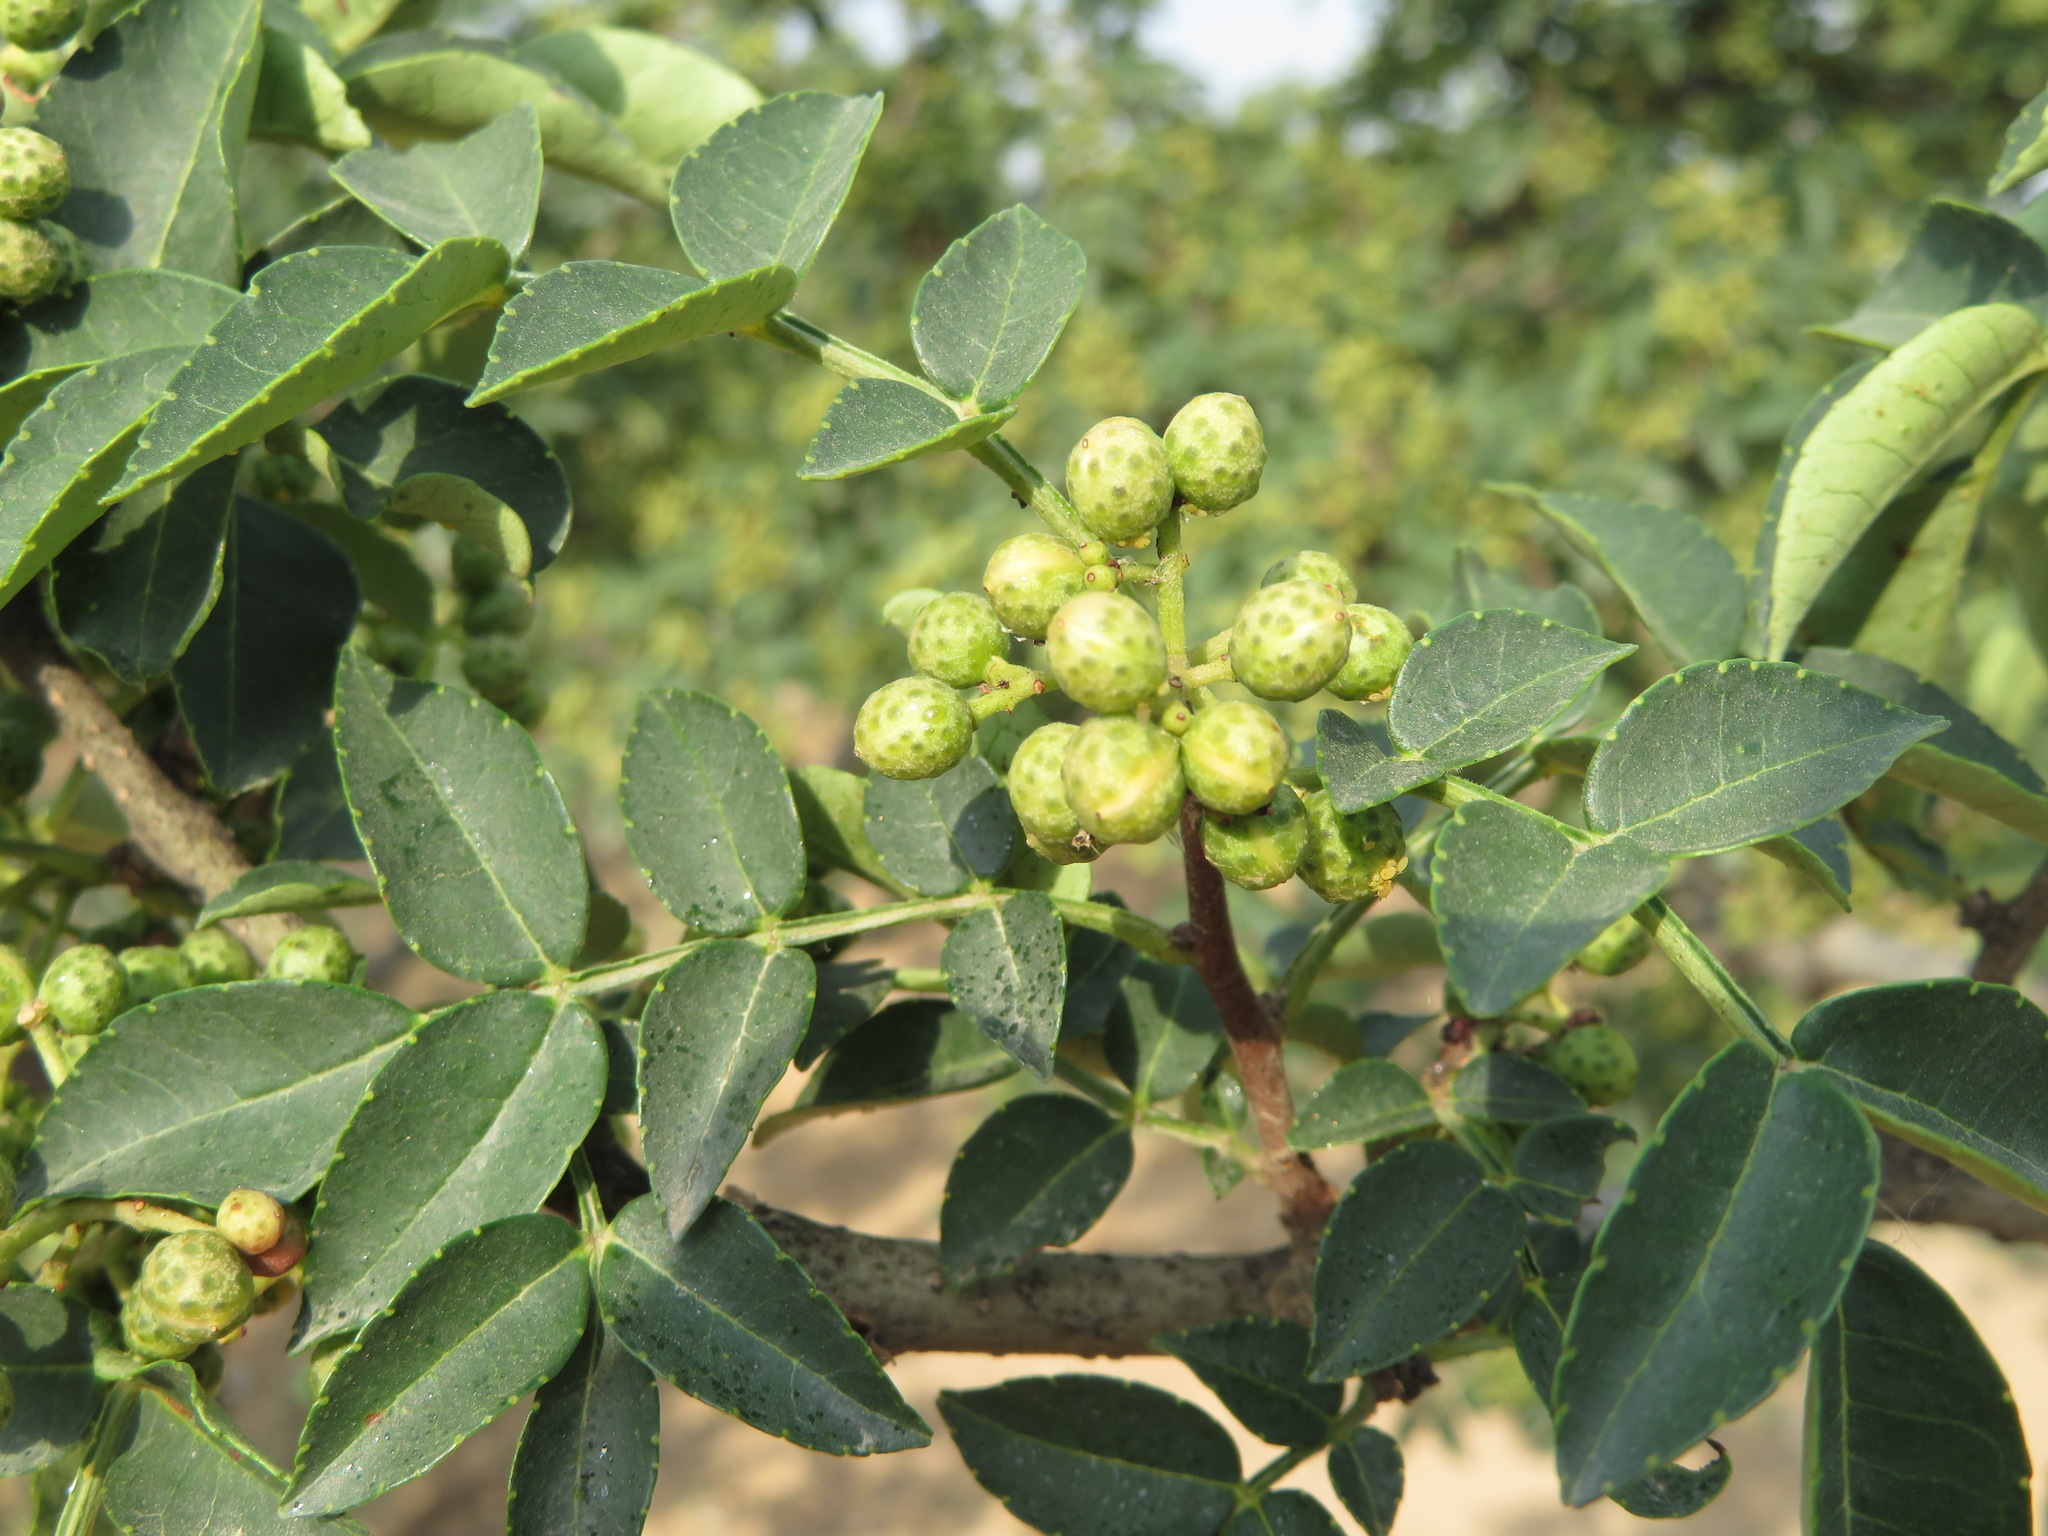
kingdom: Plantae
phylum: Tracheophyta
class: Magnoliopsida
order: Sapindales
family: Rutaceae
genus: Zanthoxylum
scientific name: Zanthoxylum bungeanum
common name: Sichuan-pepper
